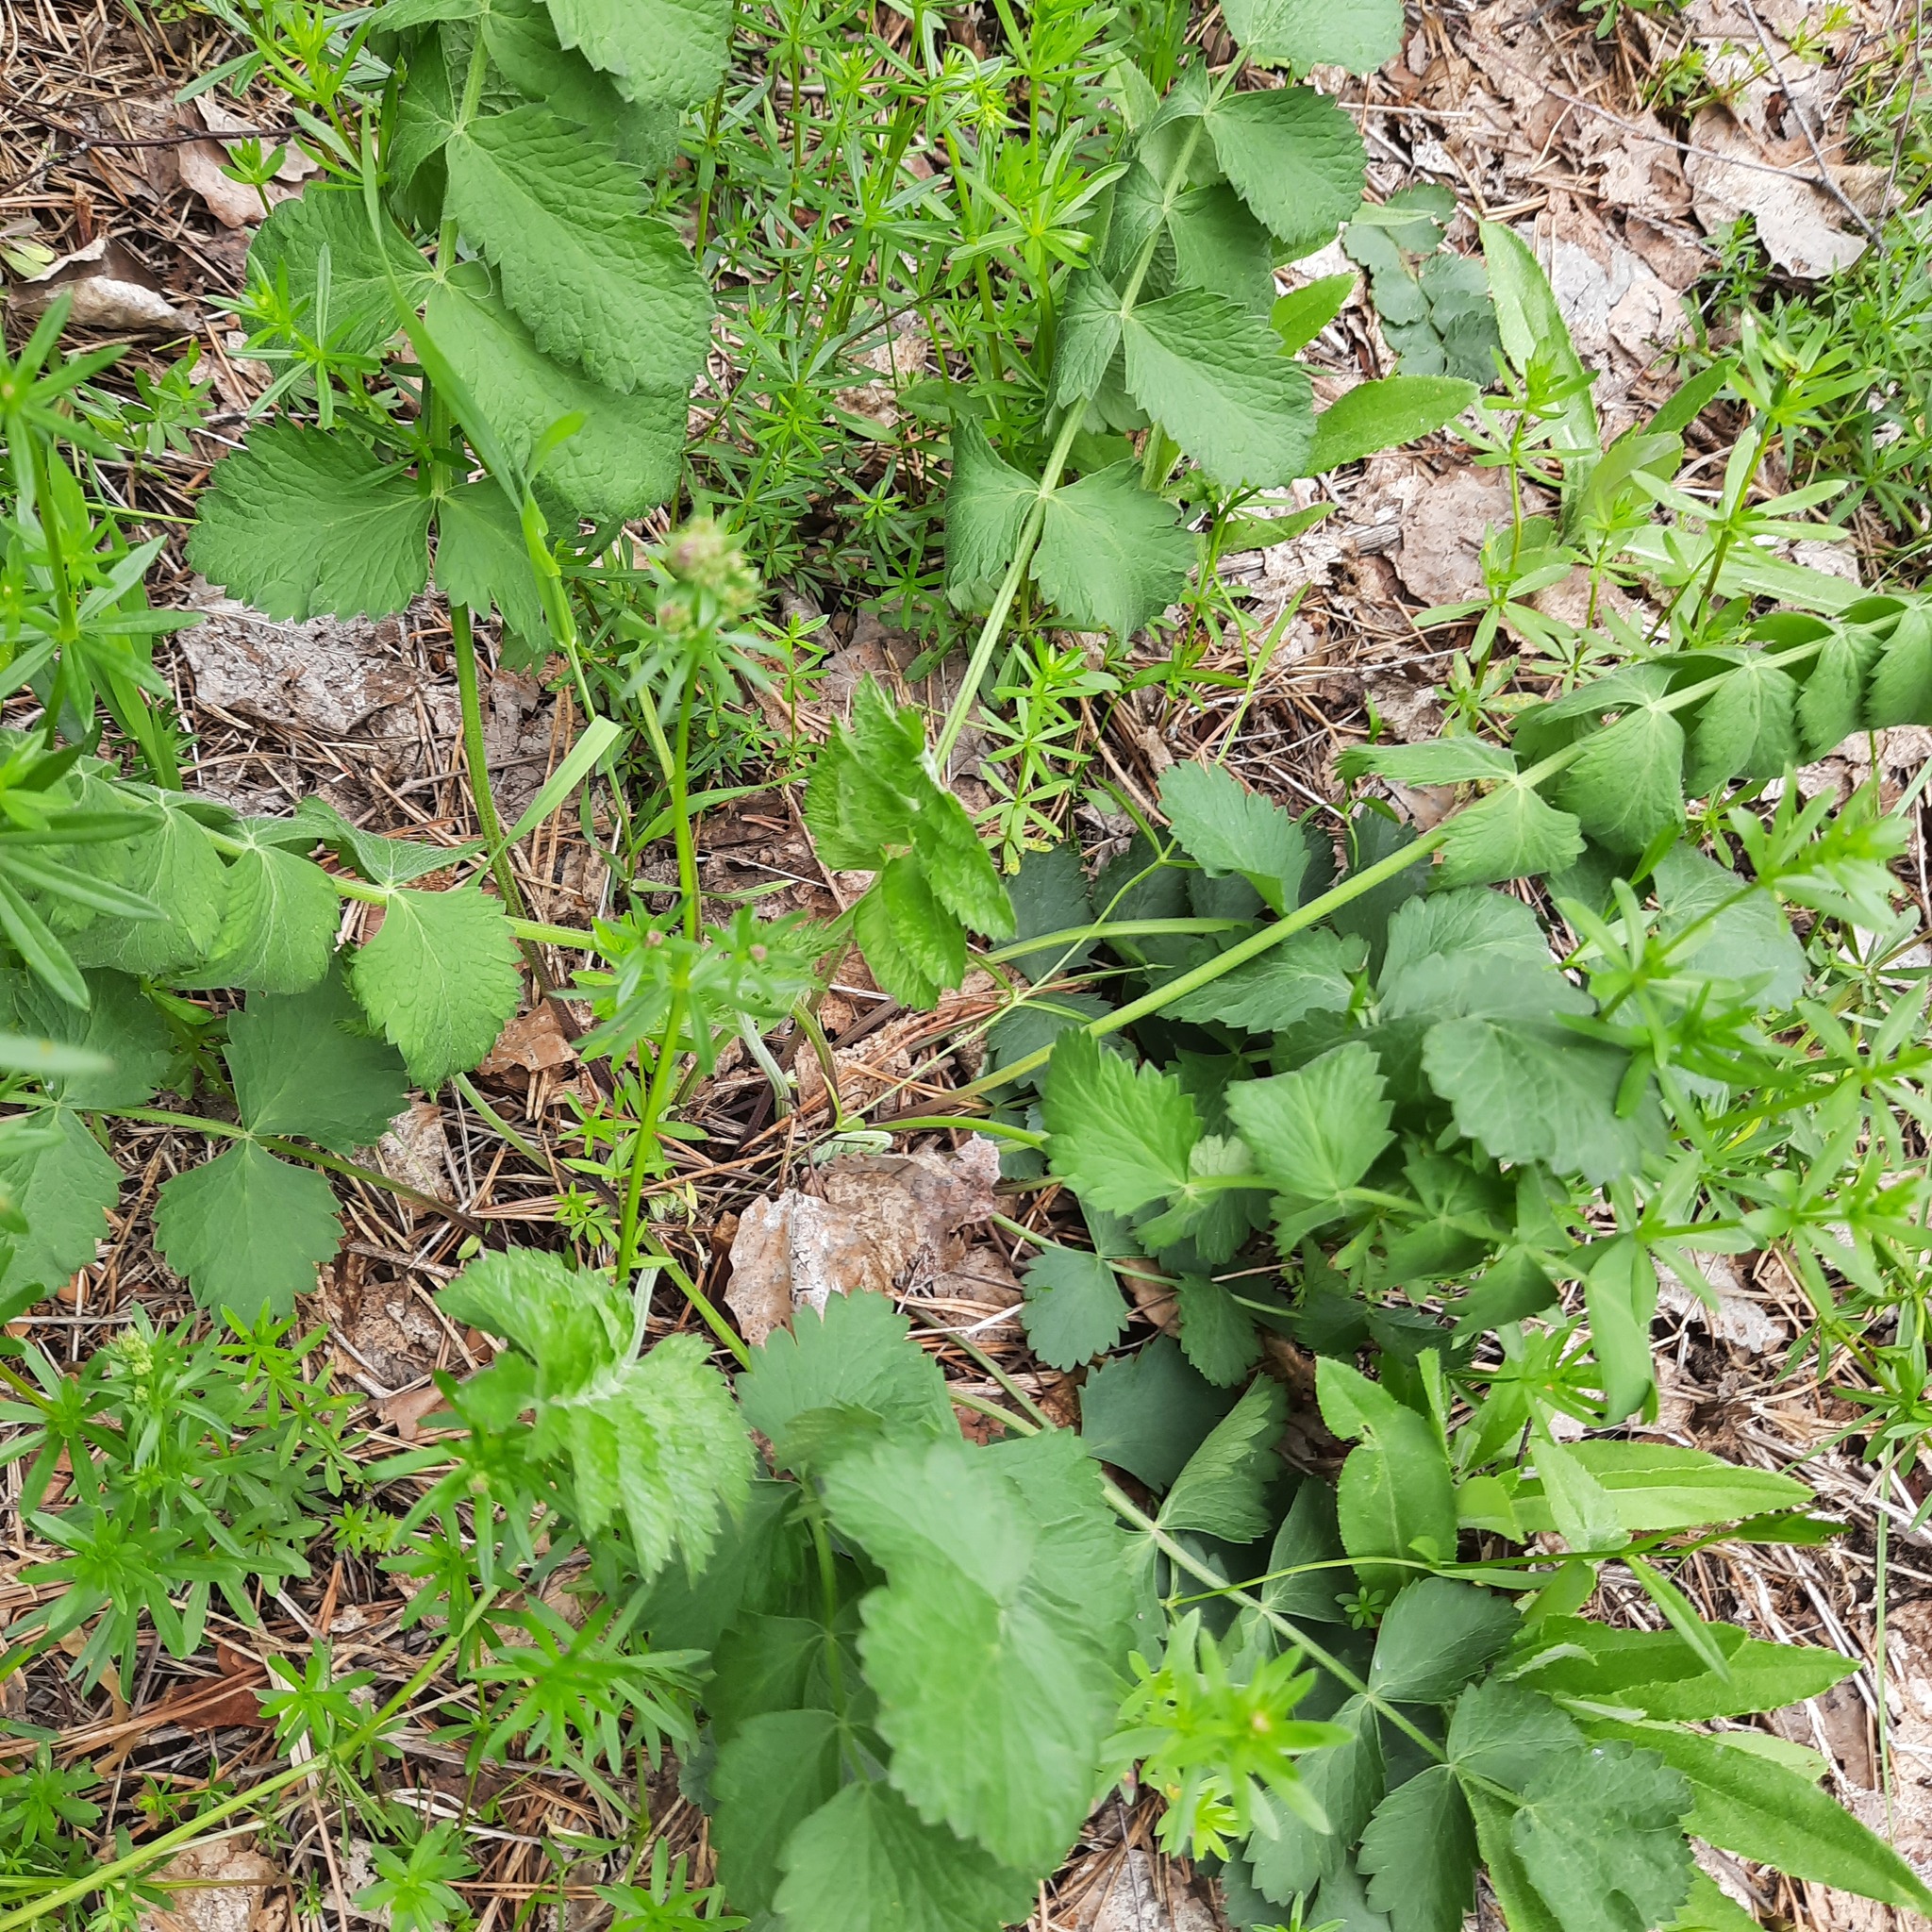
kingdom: Plantae
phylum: Tracheophyta
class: Magnoliopsida
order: Apiales
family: Apiaceae
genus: Pimpinella
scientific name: Pimpinella saxifraga
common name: Burnet-saxifrage
